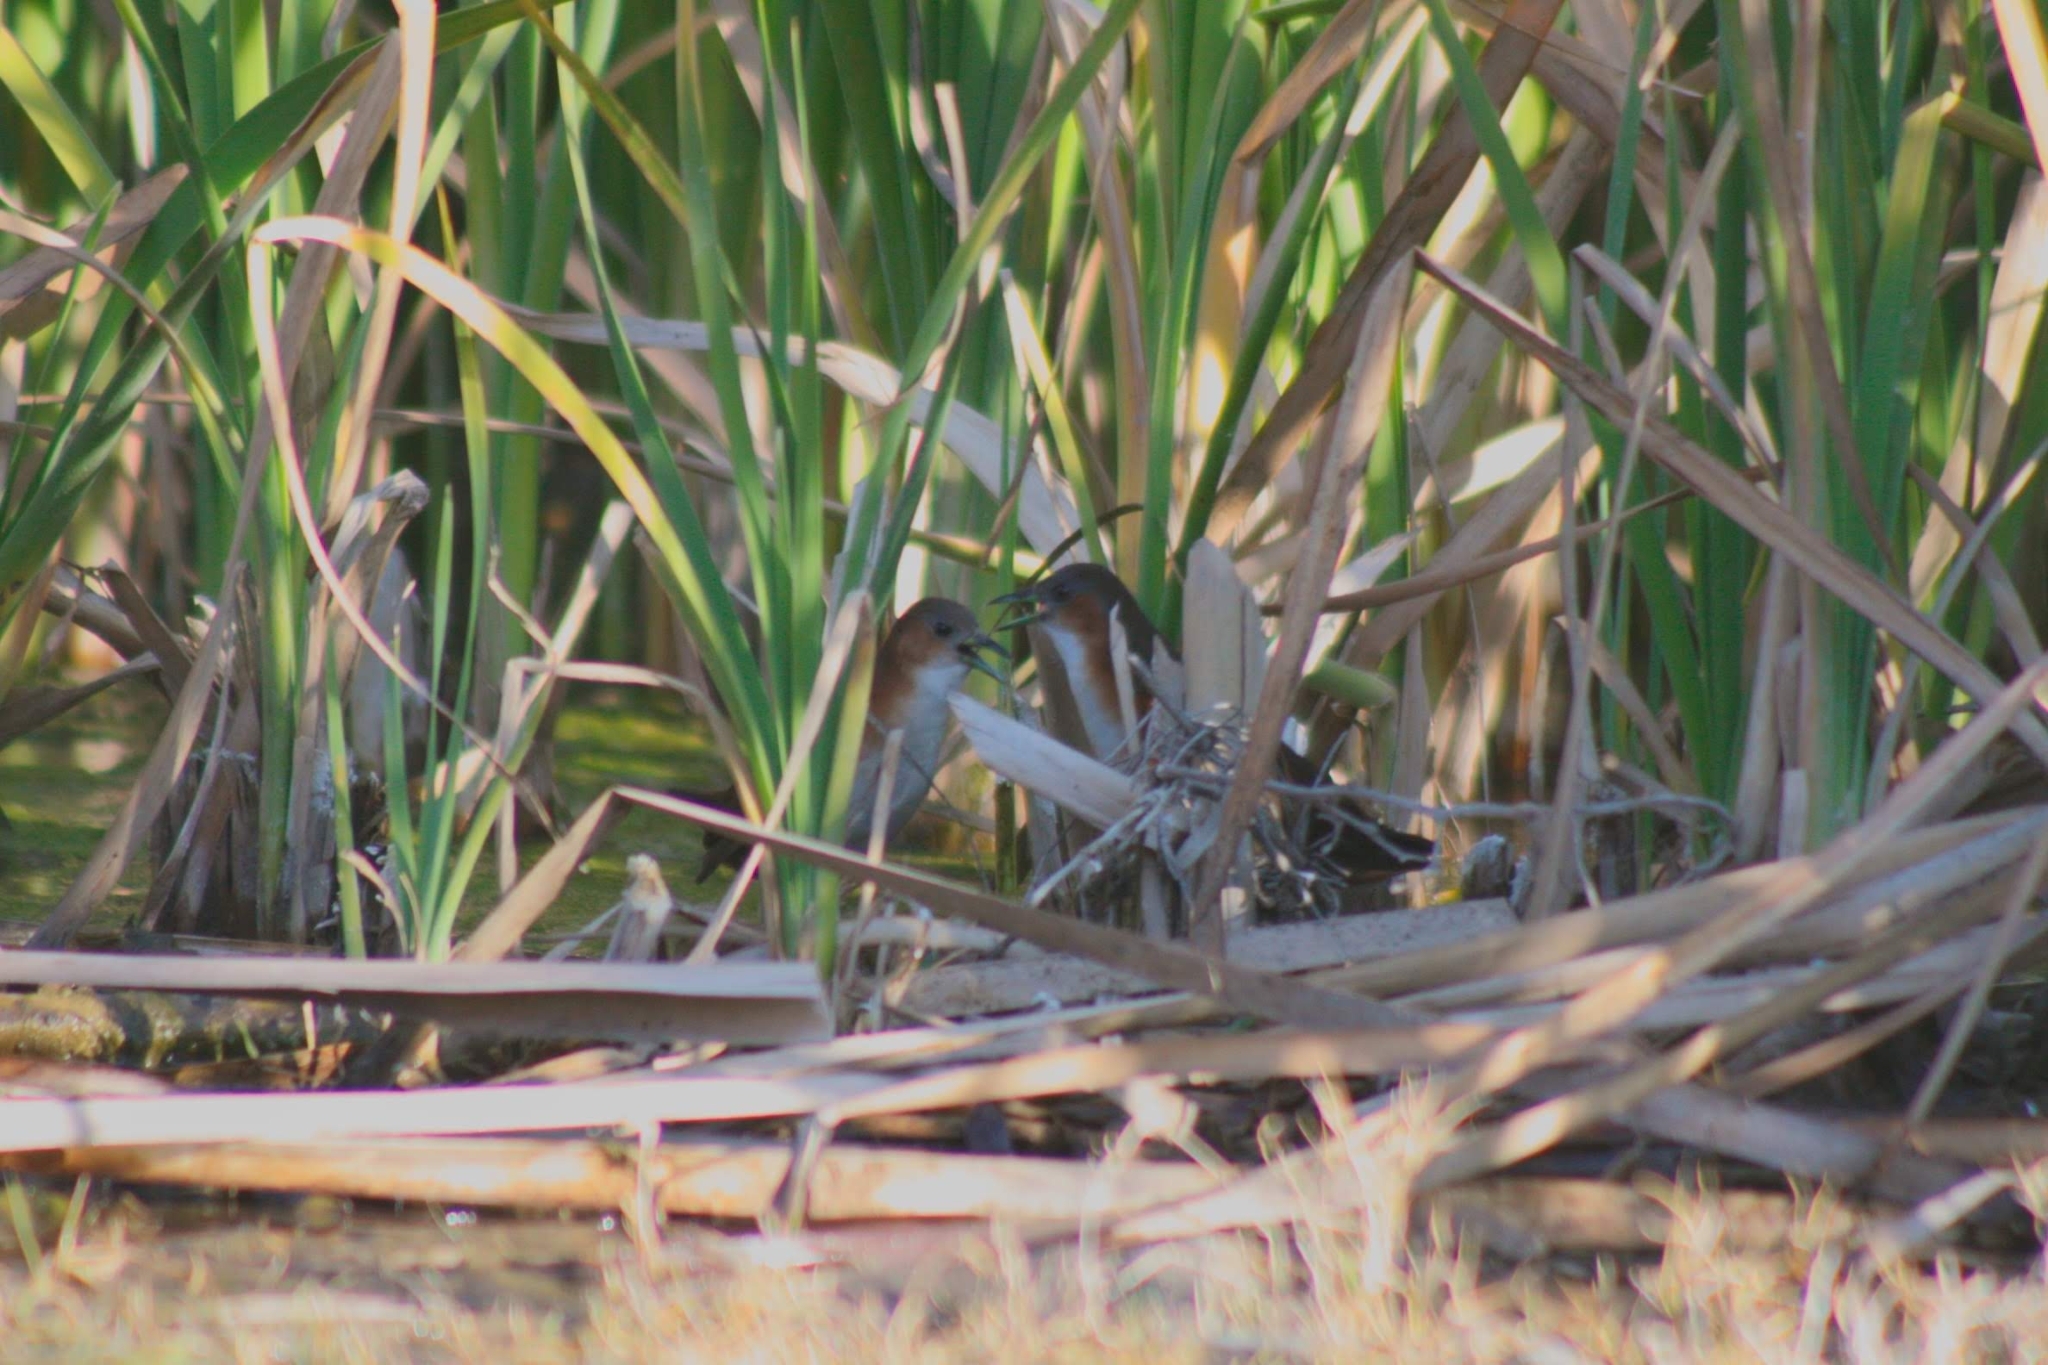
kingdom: Animalia
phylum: Chordata
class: Aves
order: Gruiformes
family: Rallidae
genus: Laterallus
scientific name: Laterallus melanophaius
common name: Rufous-sided crake
